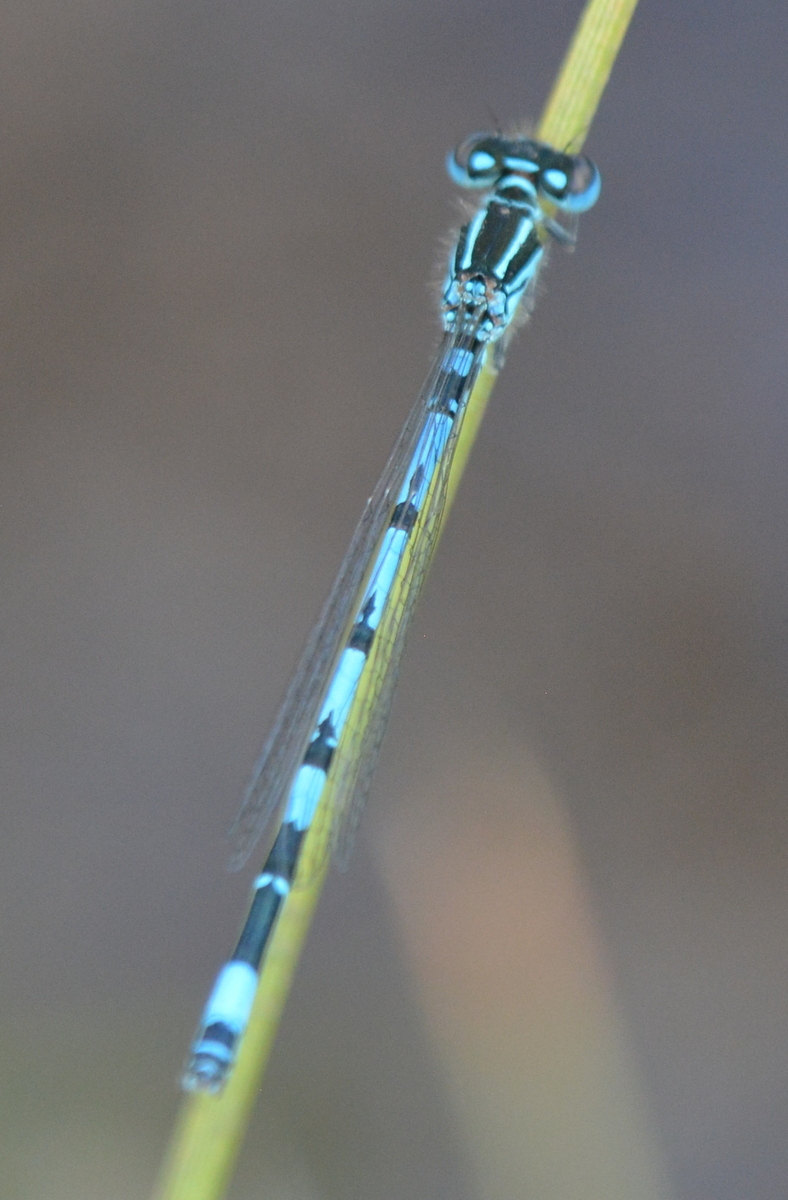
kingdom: Animalia
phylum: Arthropoda
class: Insecta
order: Odonata
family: Coenagrionidae
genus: Coenagrion
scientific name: Coenagrion mercuriale
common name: Southern damselfly
